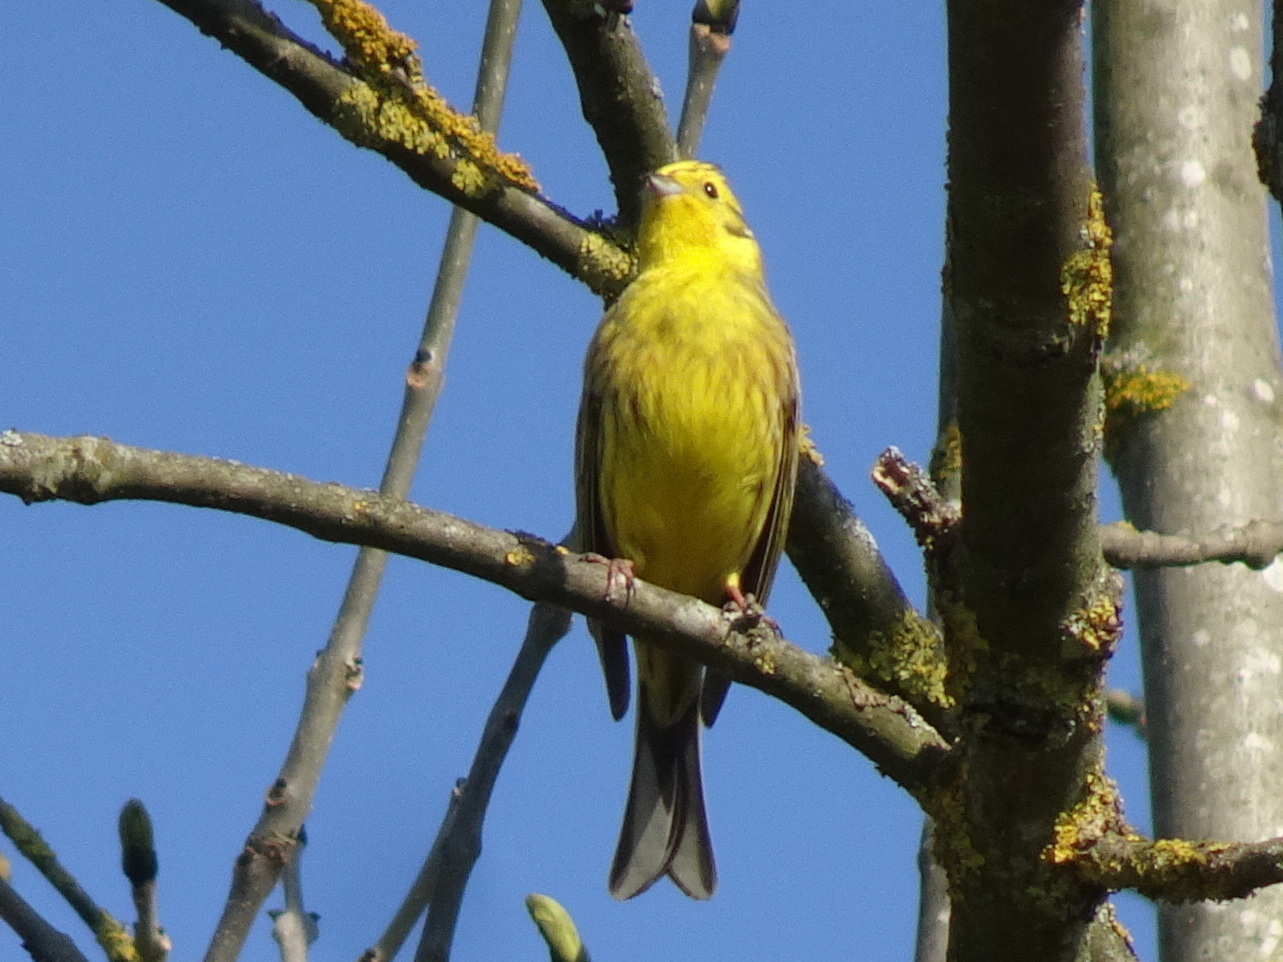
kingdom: Animalia
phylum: Chordata
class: Aves
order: Passeriformes
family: Emberizidae
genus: Emberiza
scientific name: Emberiza citrinella
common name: Yellowhammer
